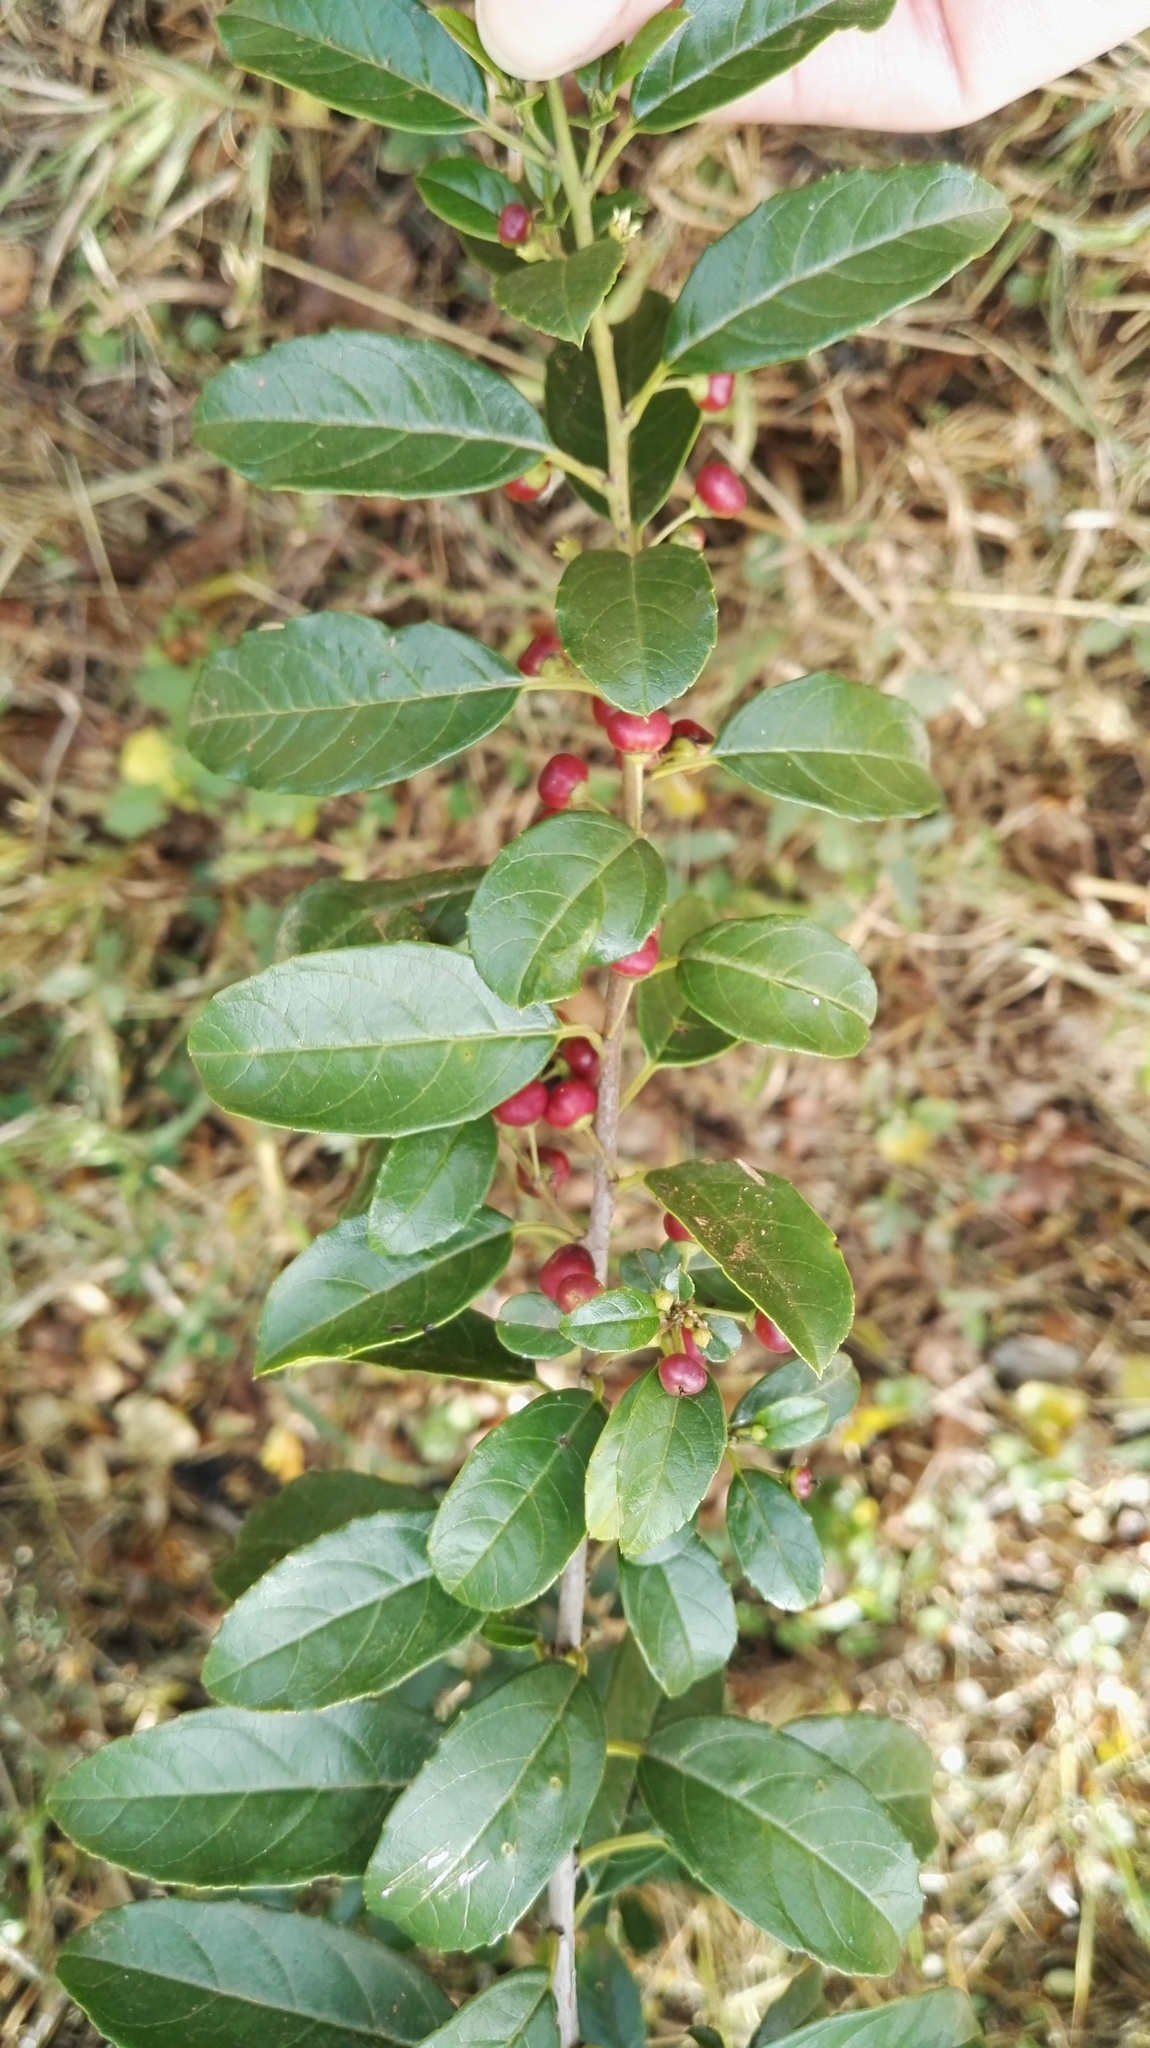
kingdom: Plantae
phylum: Tracheophyta
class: Magnoliopsida
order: Rosales
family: Rhamnaceae
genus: Rhamnus
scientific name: Rhamnus prinoides
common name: Dogwood
